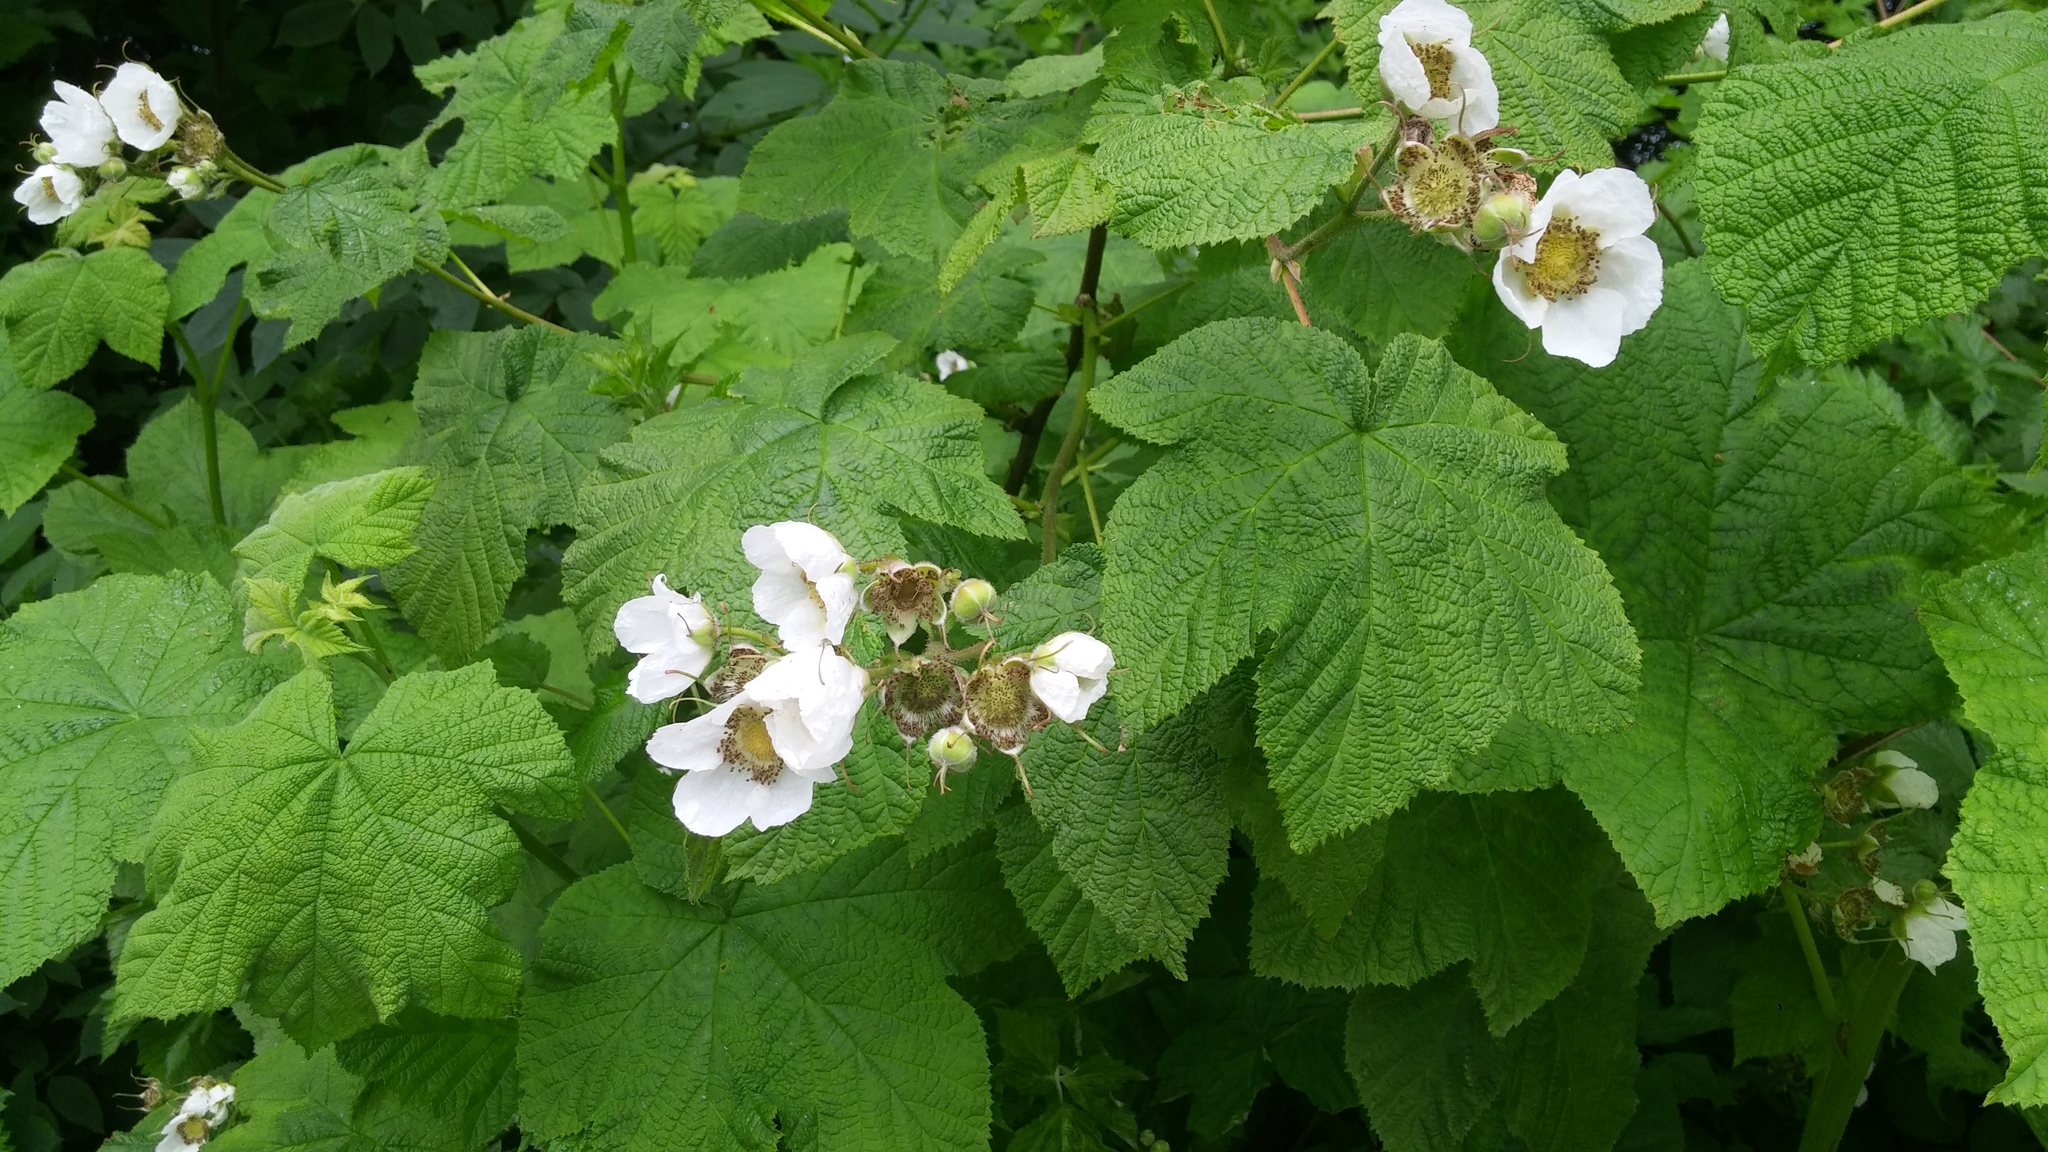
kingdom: Plantae
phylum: Tracheophyta
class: Magnoliopsida
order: Rosales
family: Rosaceae
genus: Rubus
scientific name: Rubus parviflorus
